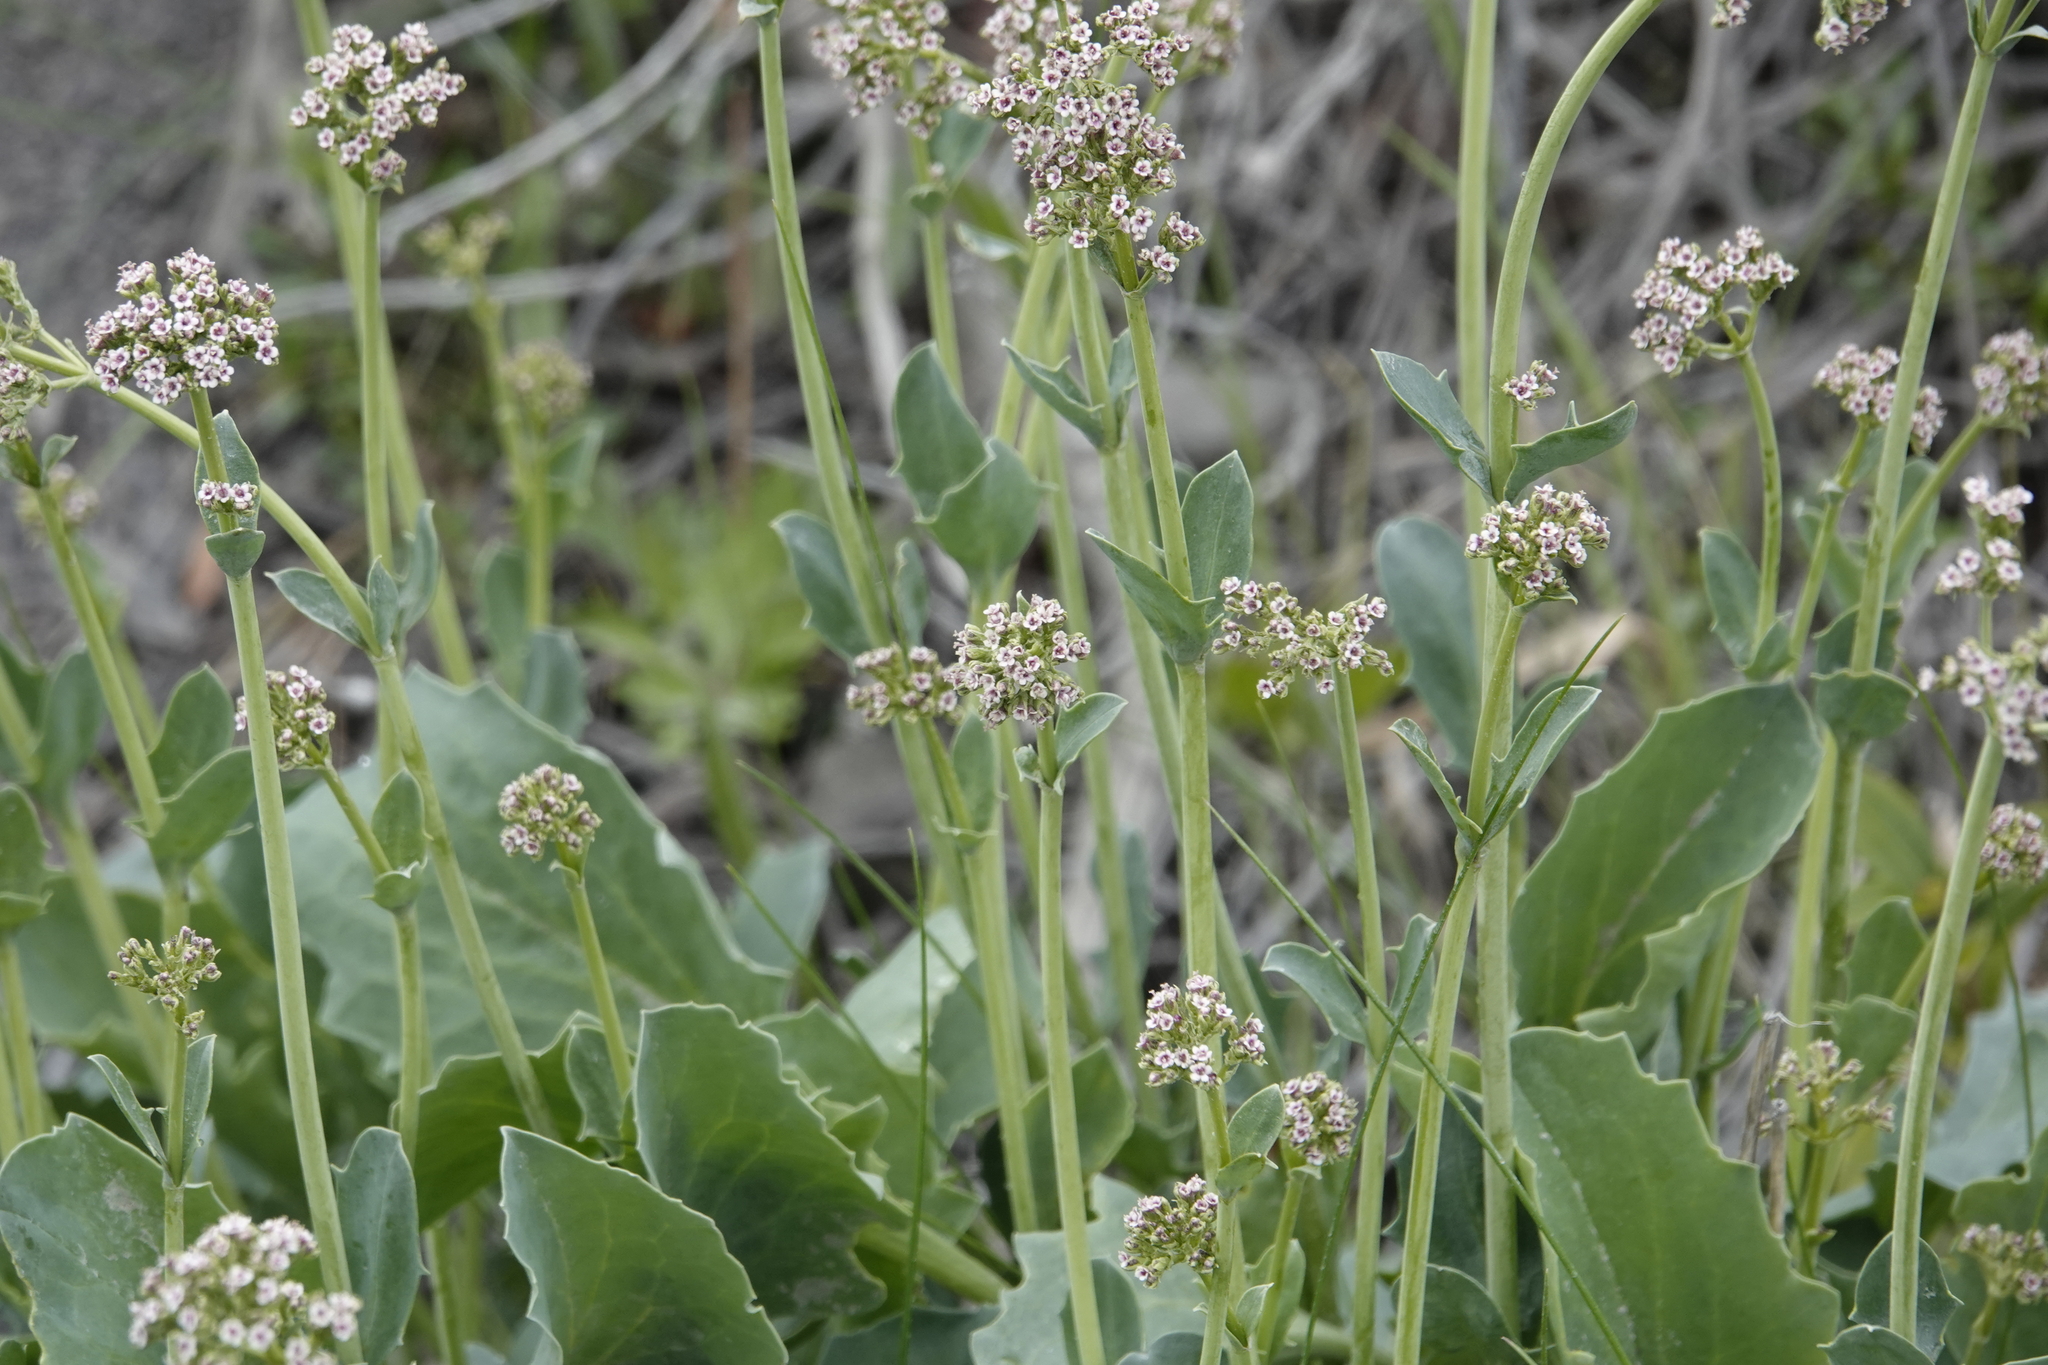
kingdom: Plantae
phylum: Tracheophyta
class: Magnoliopsida
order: Dipsacales
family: Caprifoliaceae
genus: Valeriana
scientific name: Valeriana carnosa
